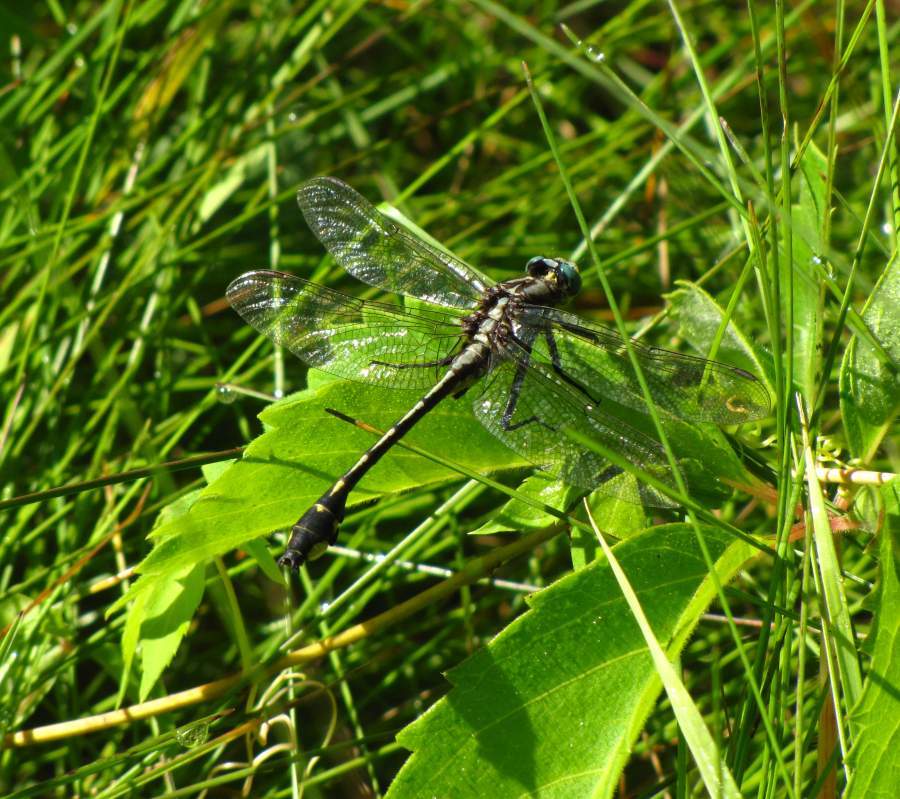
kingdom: Animalia
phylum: Arthropoda
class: Insecta
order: Odonata
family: Gomphidae
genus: Gomphurus
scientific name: Gomphurus fraternus
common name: Midland clubtail
